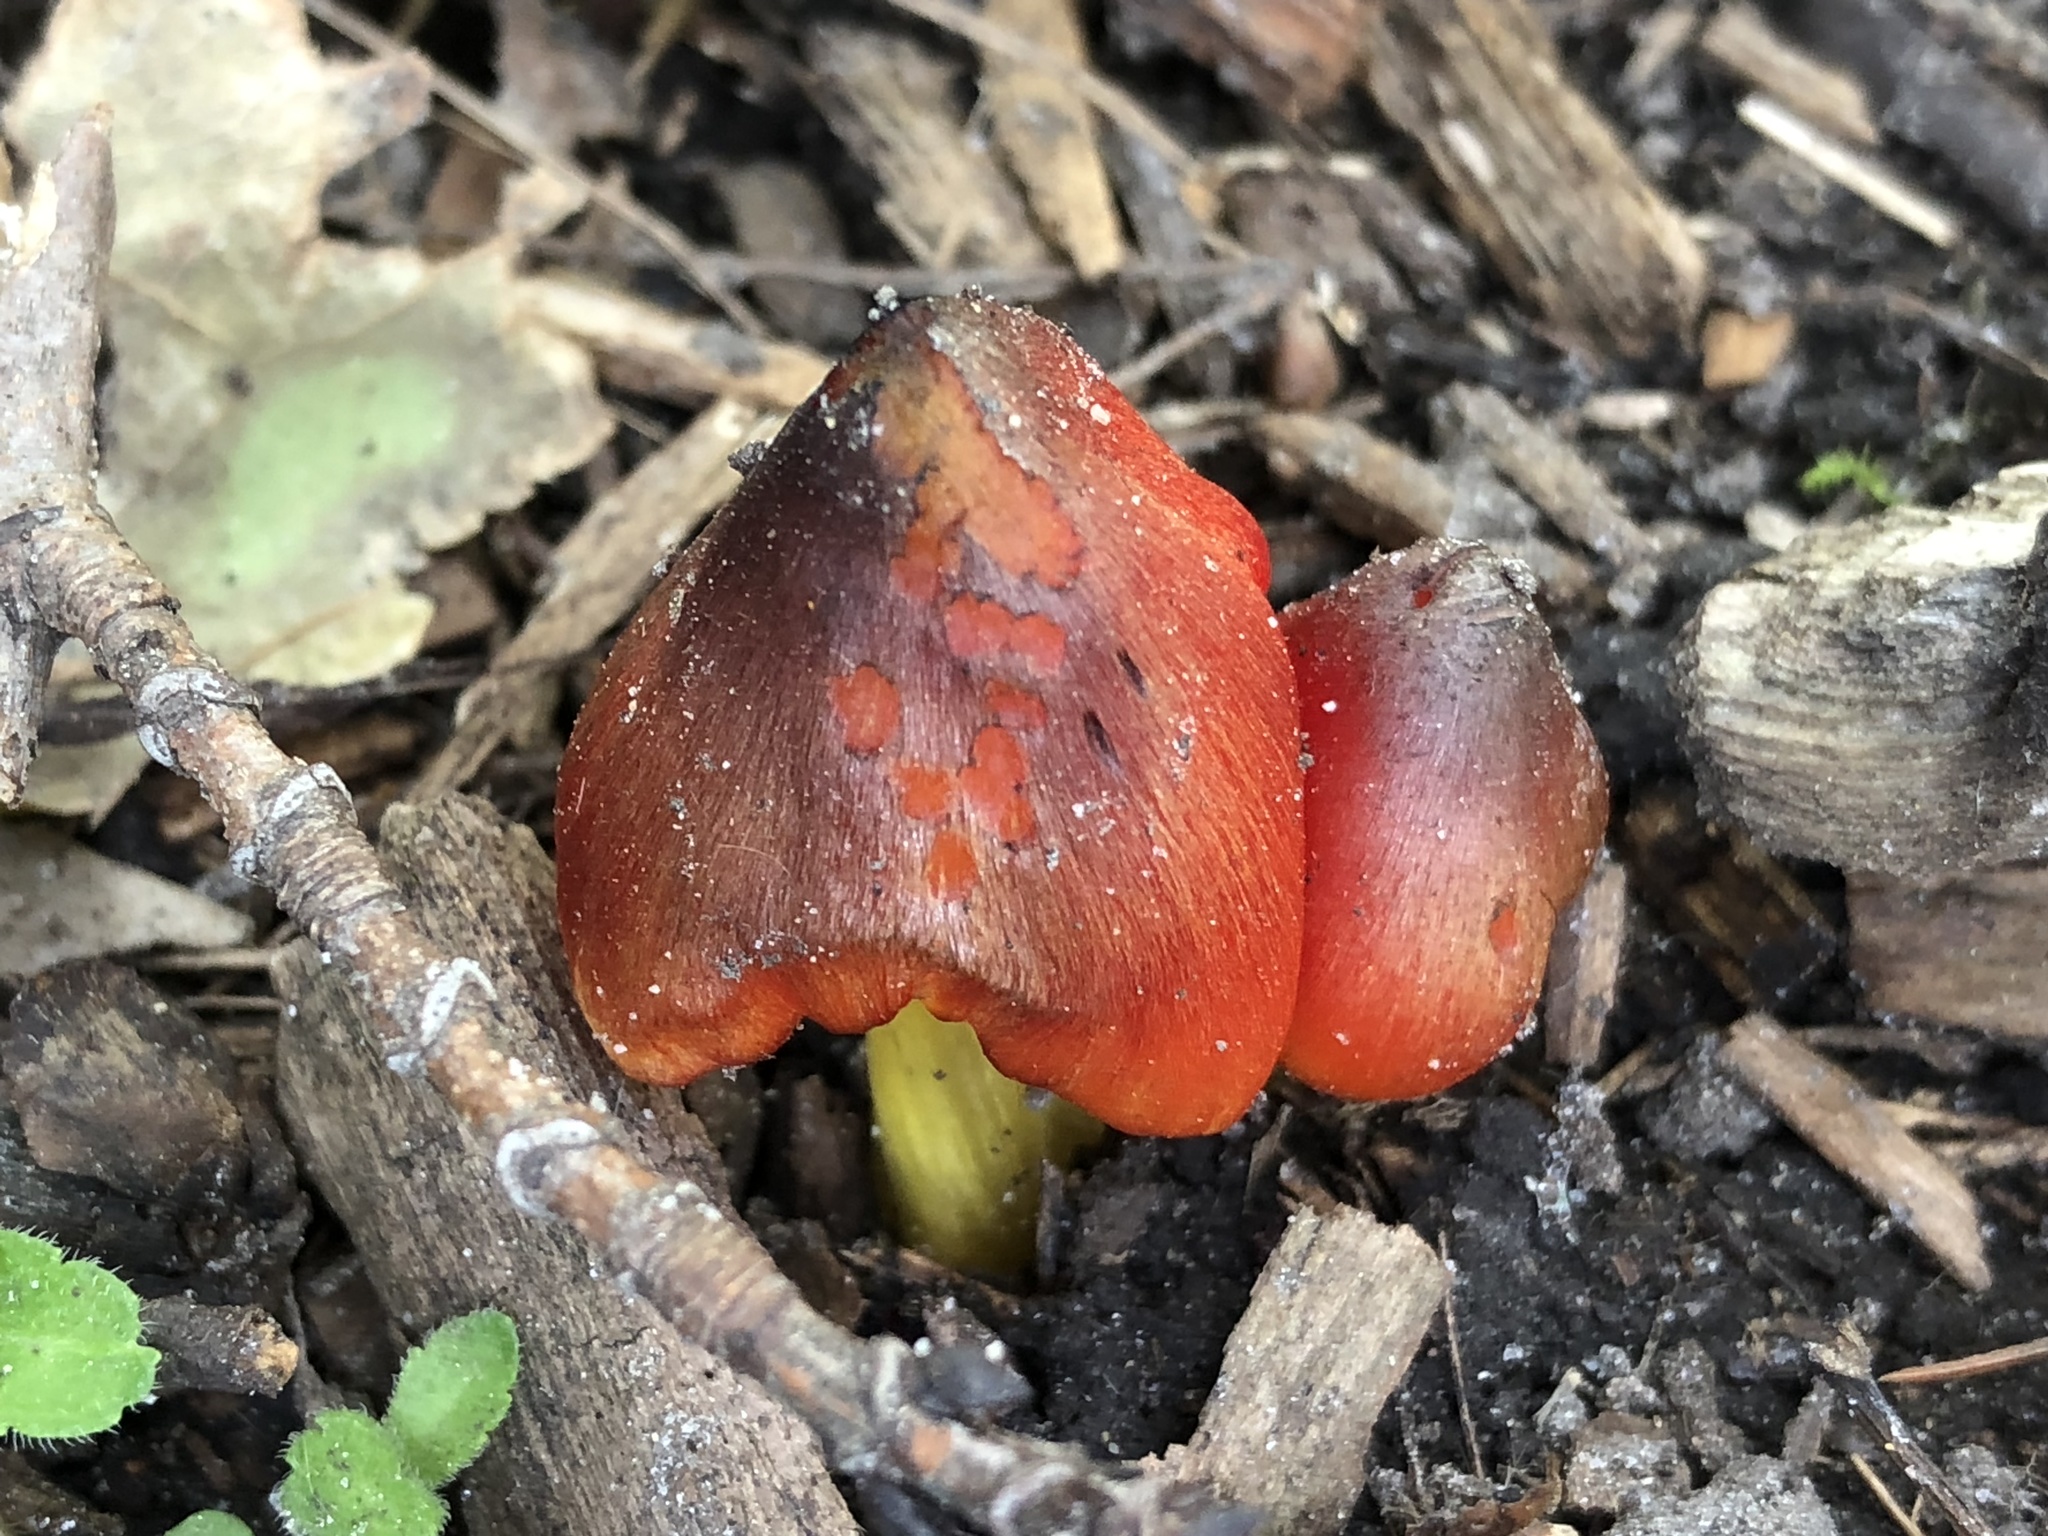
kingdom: Fungi
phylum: Basidiomycota
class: Agaricomycetes
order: Agaricales
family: Hygrophoraceae
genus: Hygrocybe
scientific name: Hygrocybe conica
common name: Blackening wax-cap
